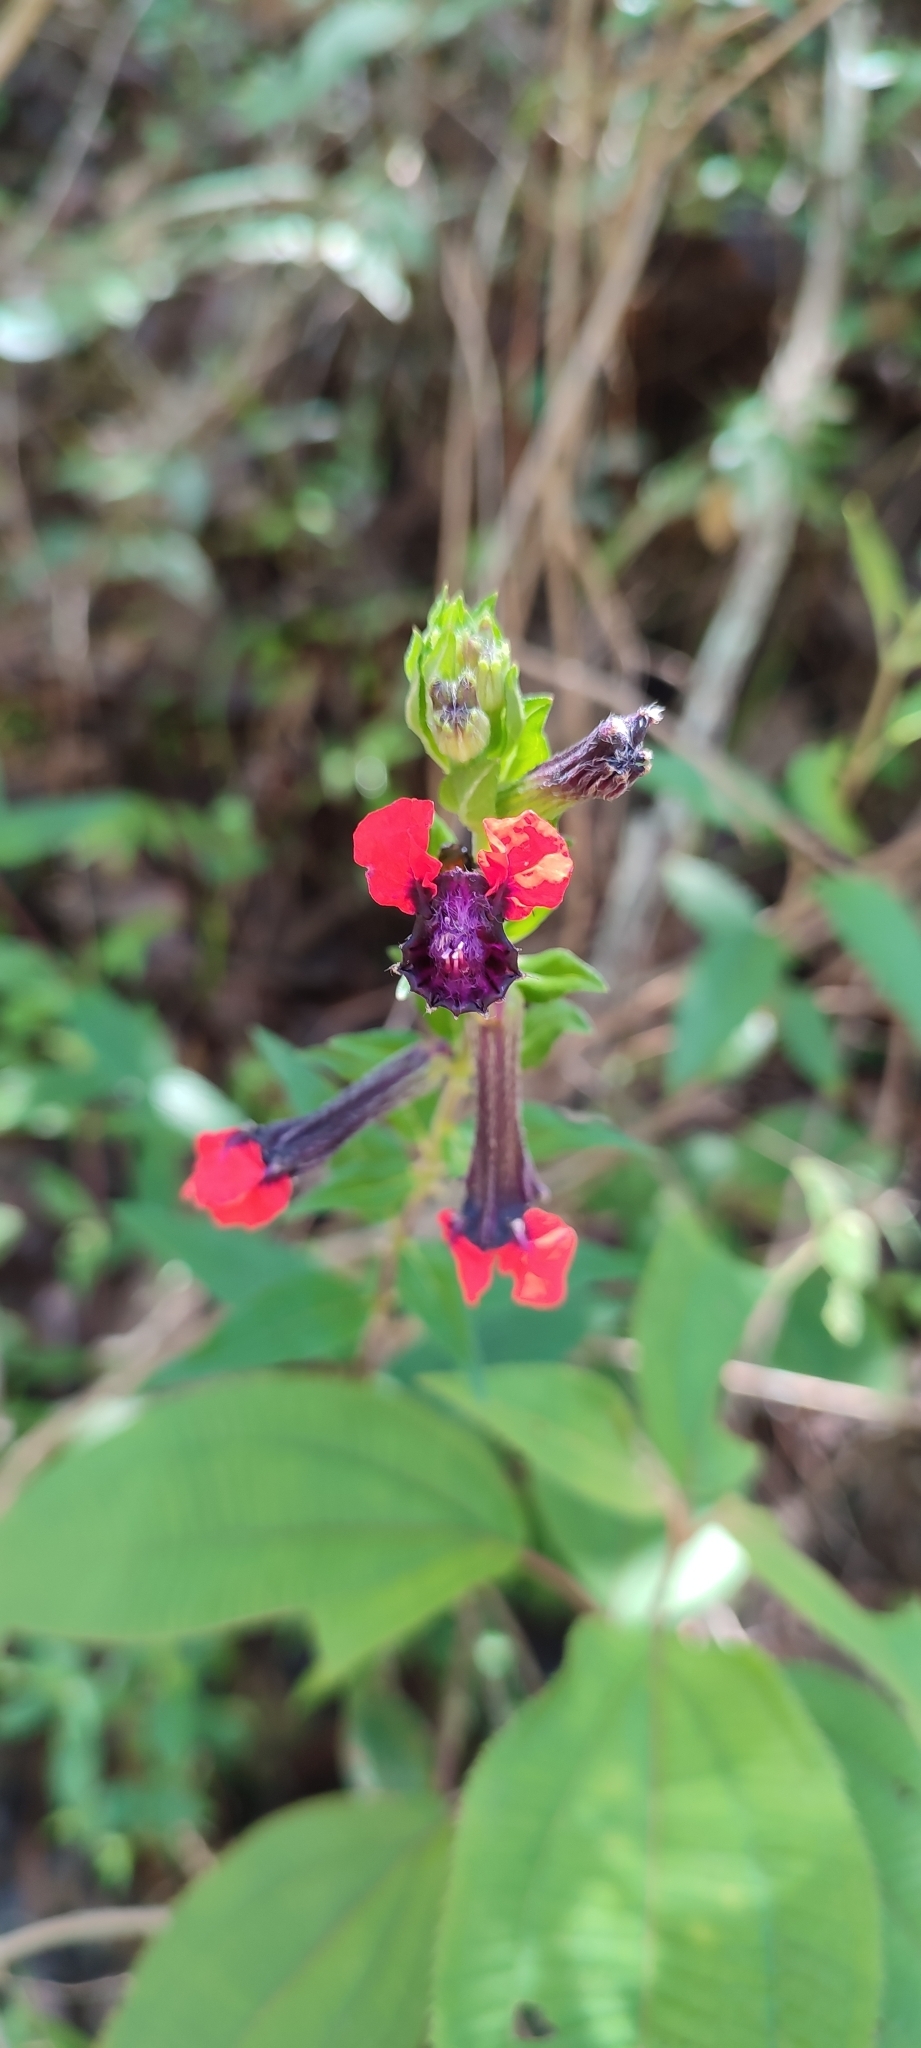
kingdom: Plantae
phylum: Tracheophyta
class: Magnoliopsida
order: Myrtales
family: Lythraceae
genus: Cuphea
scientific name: Cuphea llavea
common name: Tiny-mice
